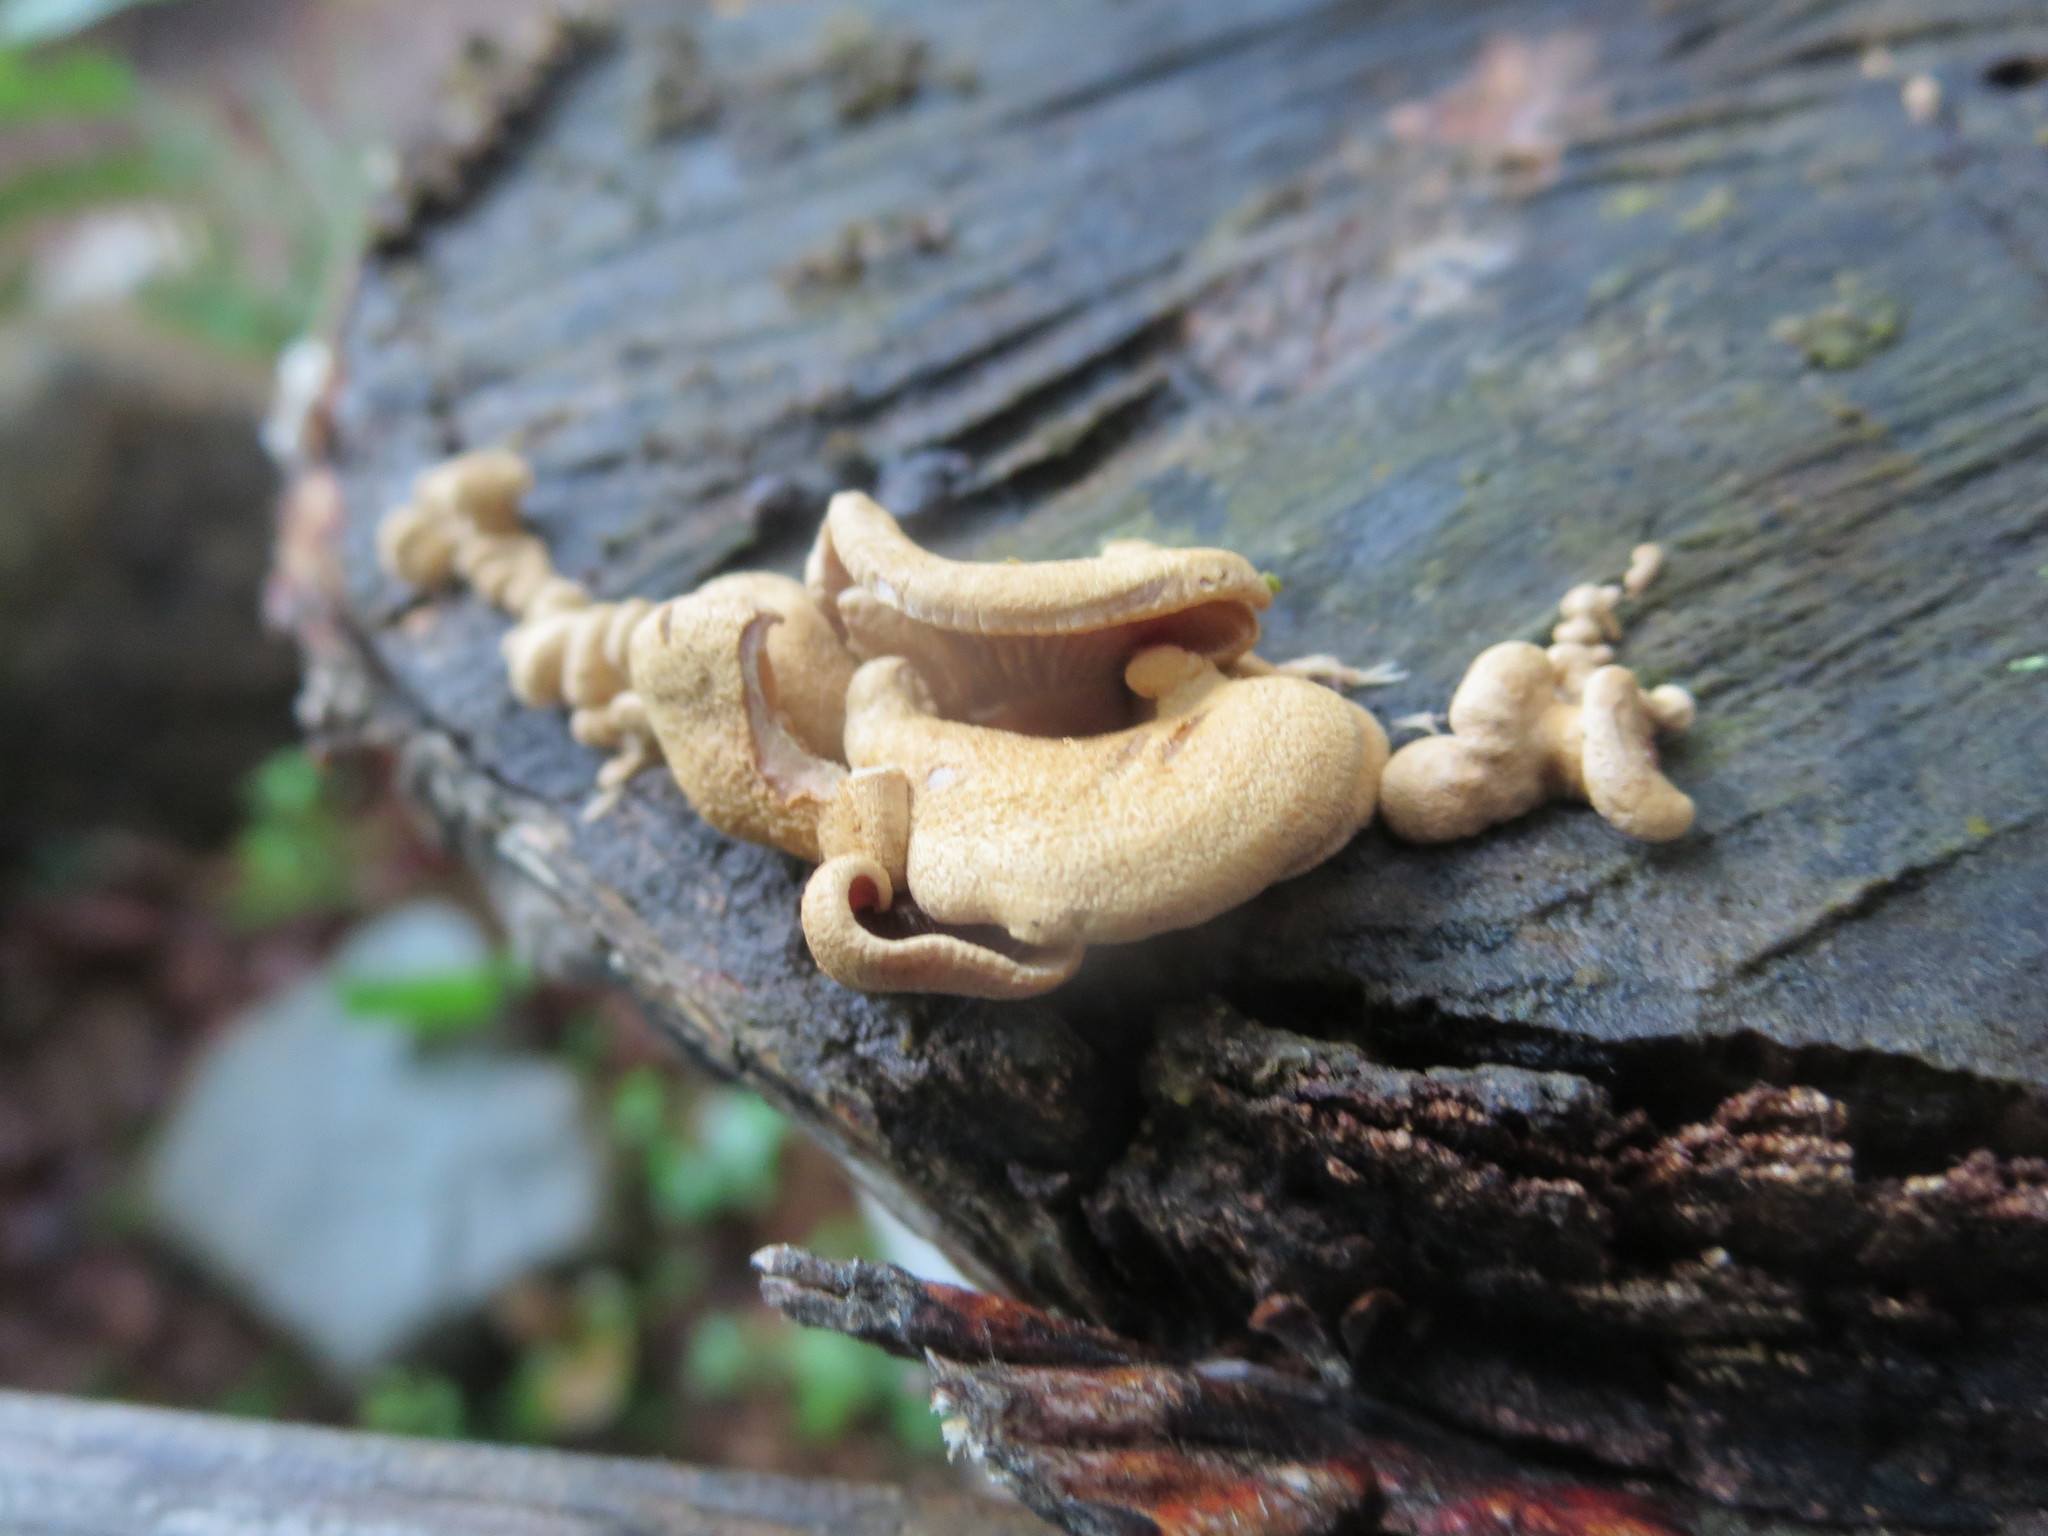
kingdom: Fungi
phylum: Basidiomycota
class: Agaricomycetes
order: Agaricales
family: Mycenaceae
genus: Panellus
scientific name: Panellus stipticus
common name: Bitter oysterling
